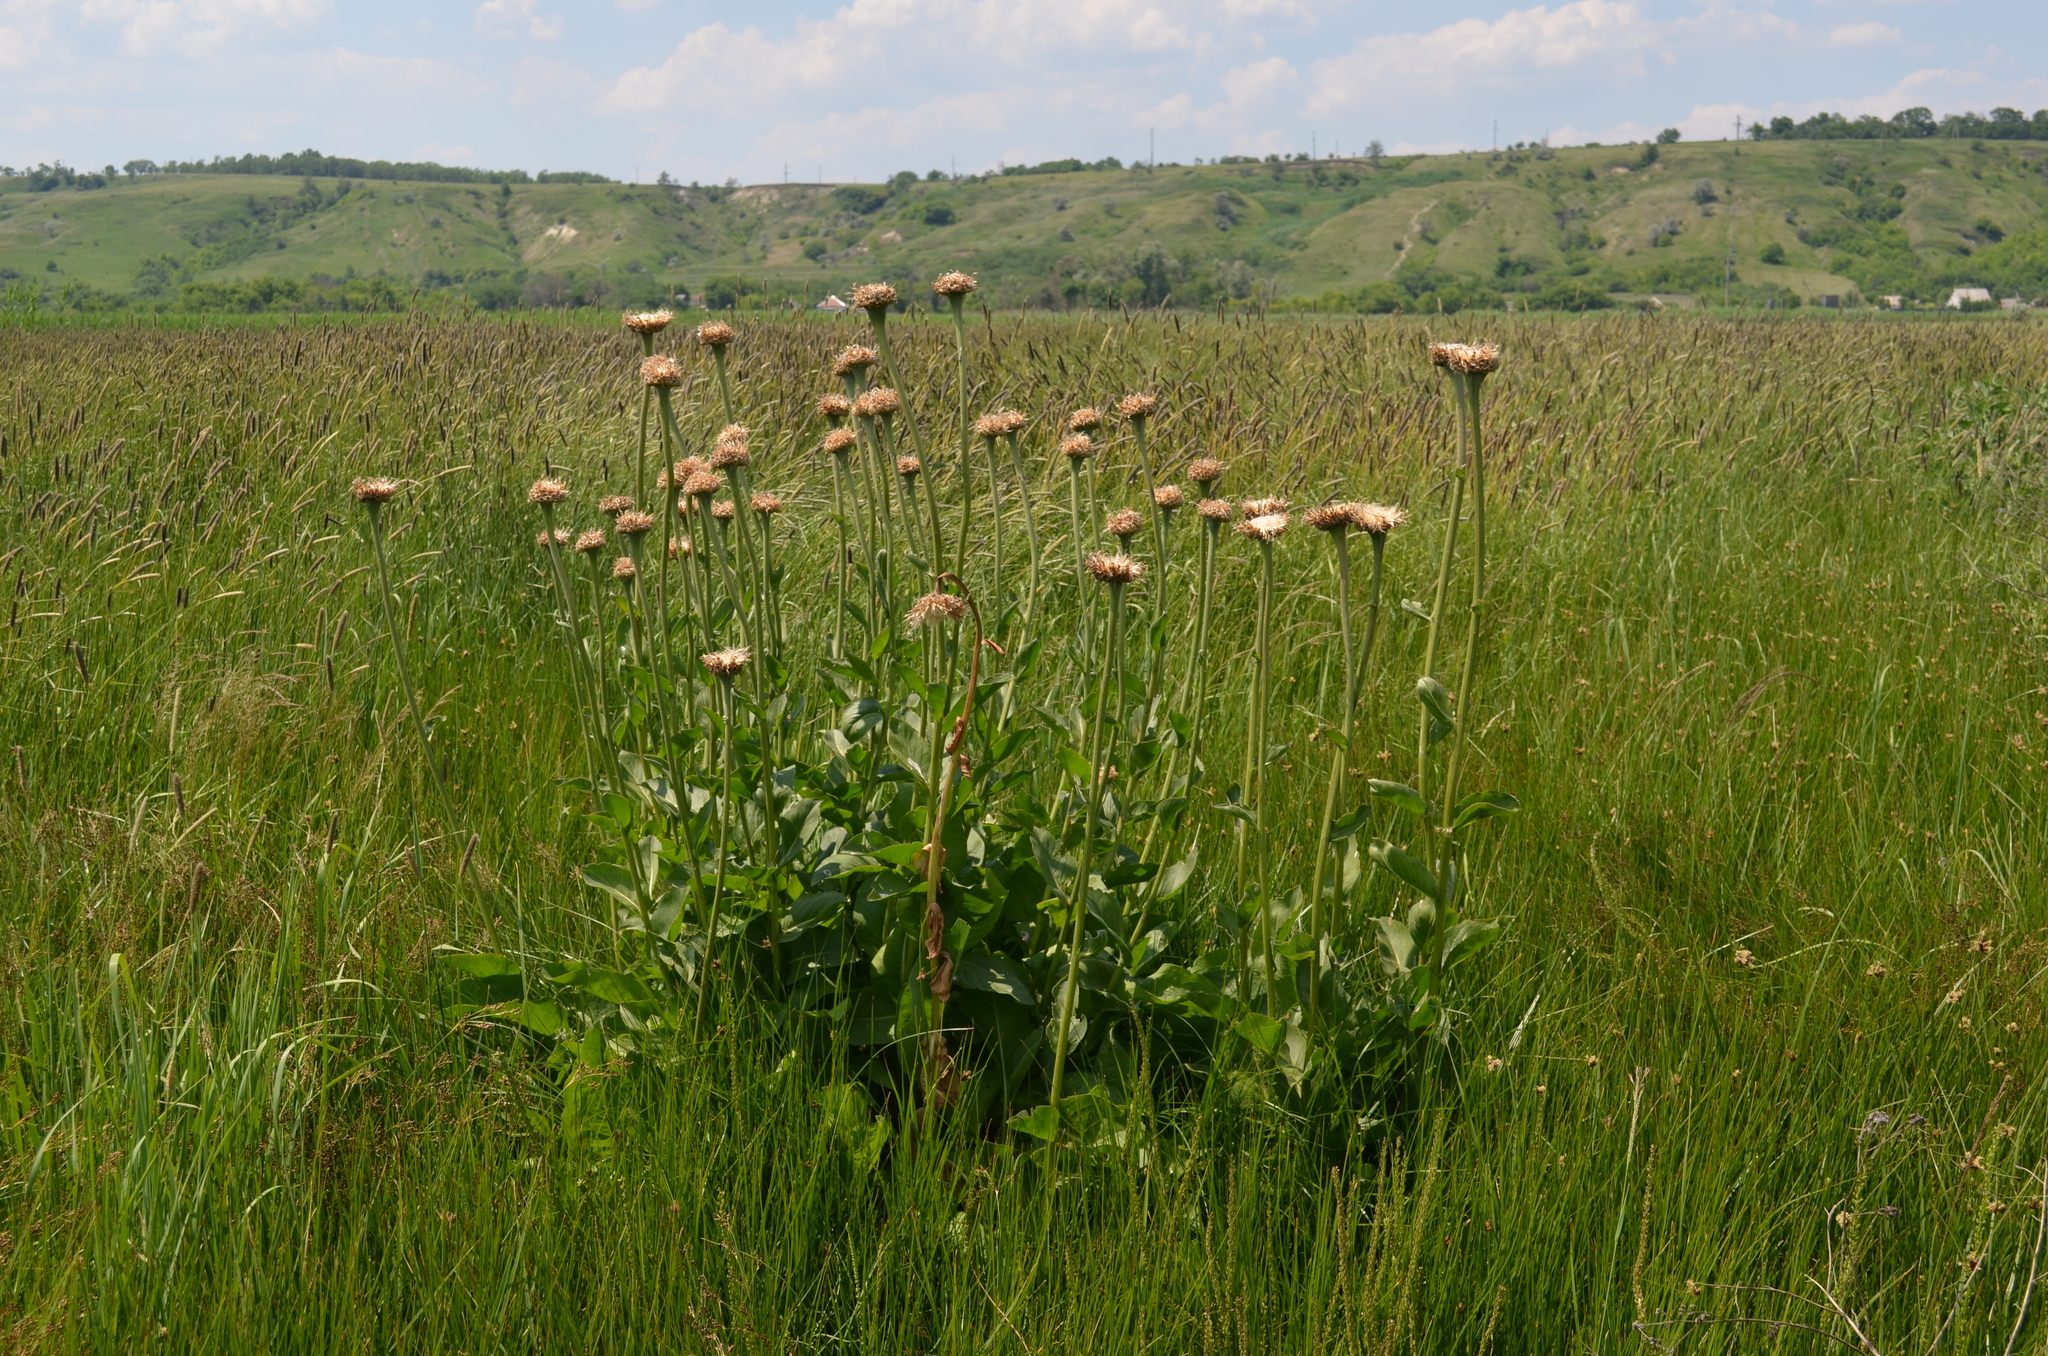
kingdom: Plantae
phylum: Tracheophyta
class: Magnoliopsida
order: Asterales
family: Asteraceae
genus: Leuzea
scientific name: Leuzea carthamoides
